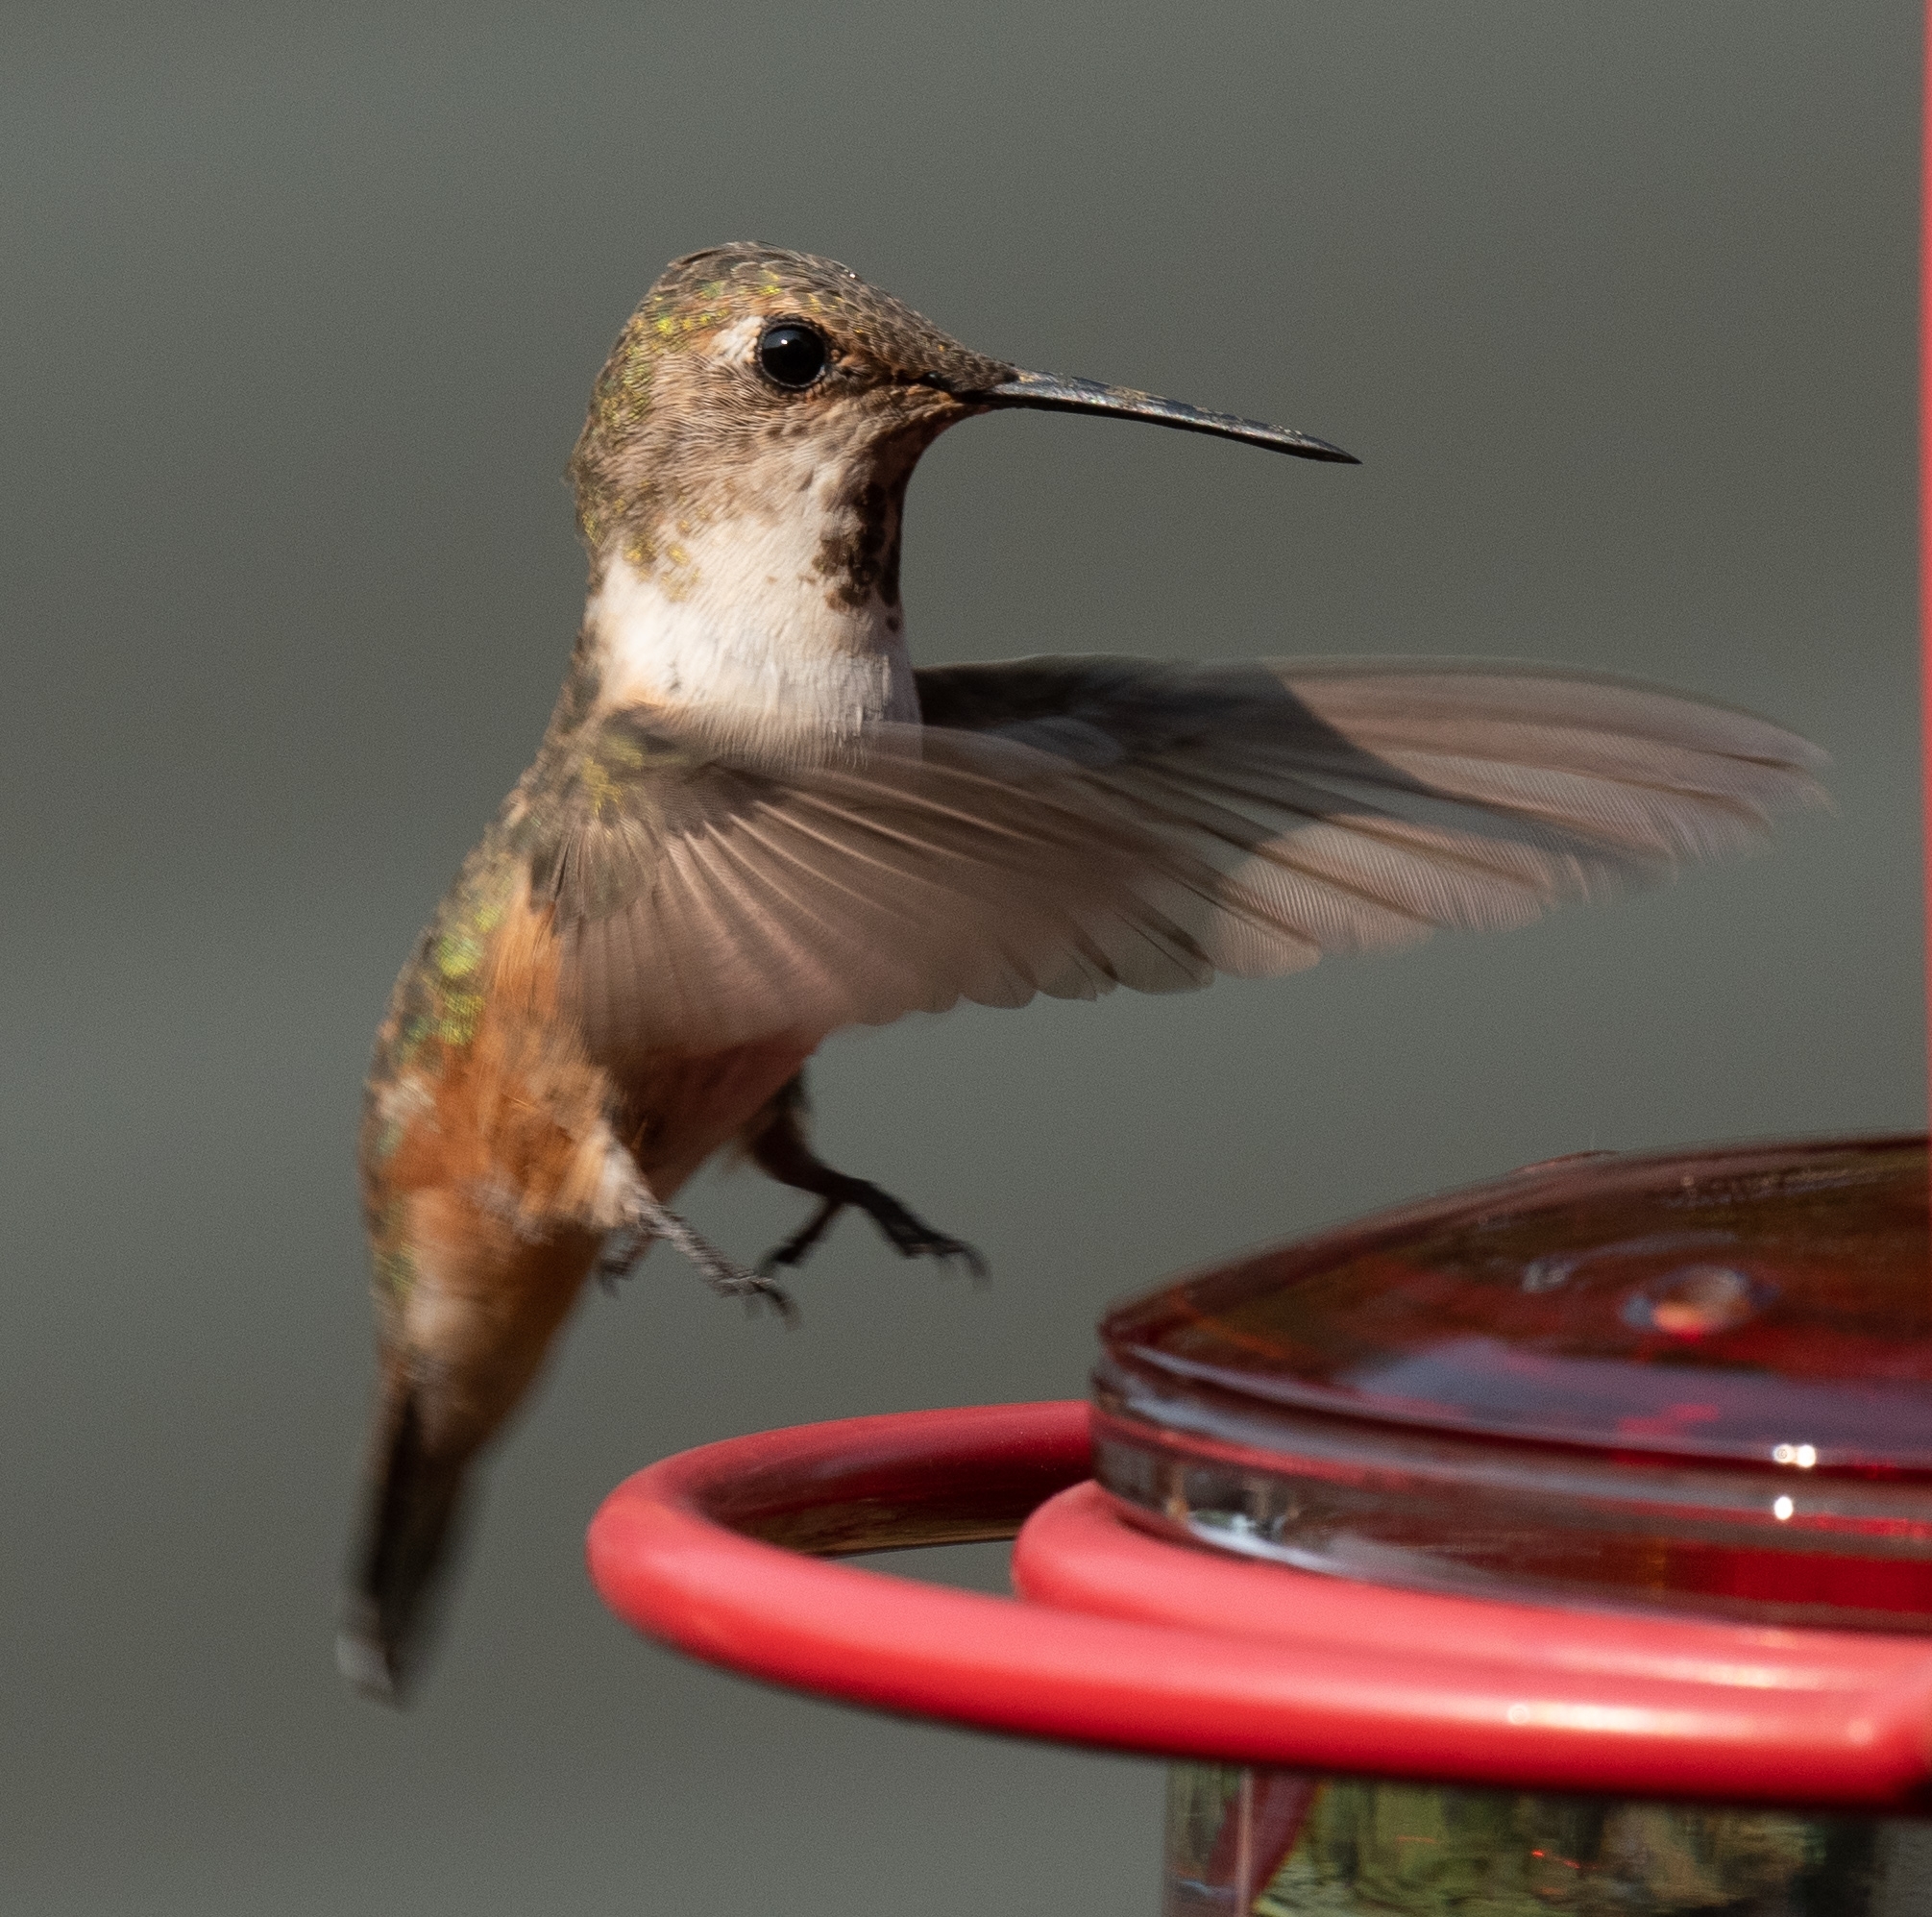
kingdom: Animalia
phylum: Chordata
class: Aves
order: Apodiformes
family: Trochilidae
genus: Selasphorus
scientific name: Selasphorus rufus
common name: Rufous hummingbird
